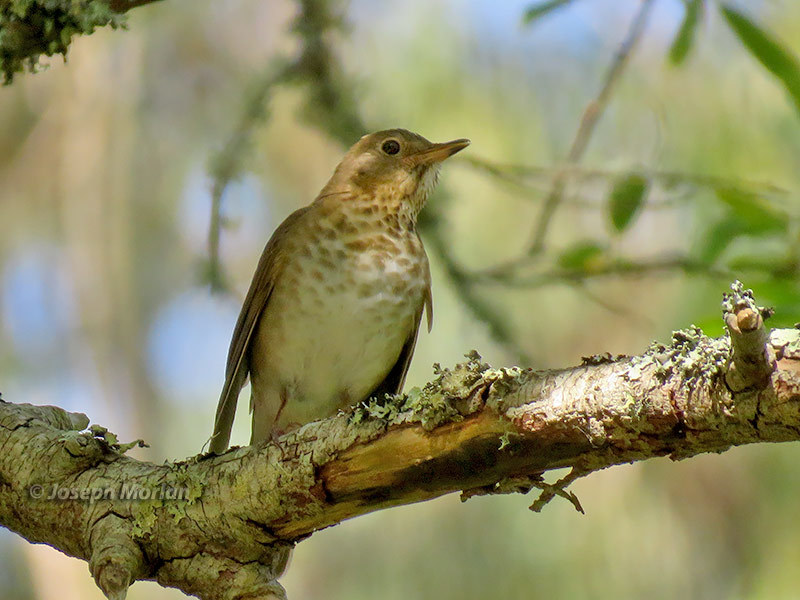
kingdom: Animalia
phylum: Chordata
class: Aves
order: Passeriformes
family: Turdidae
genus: Catharus
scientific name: Catharus ustulatus
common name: Swainson's thrush
